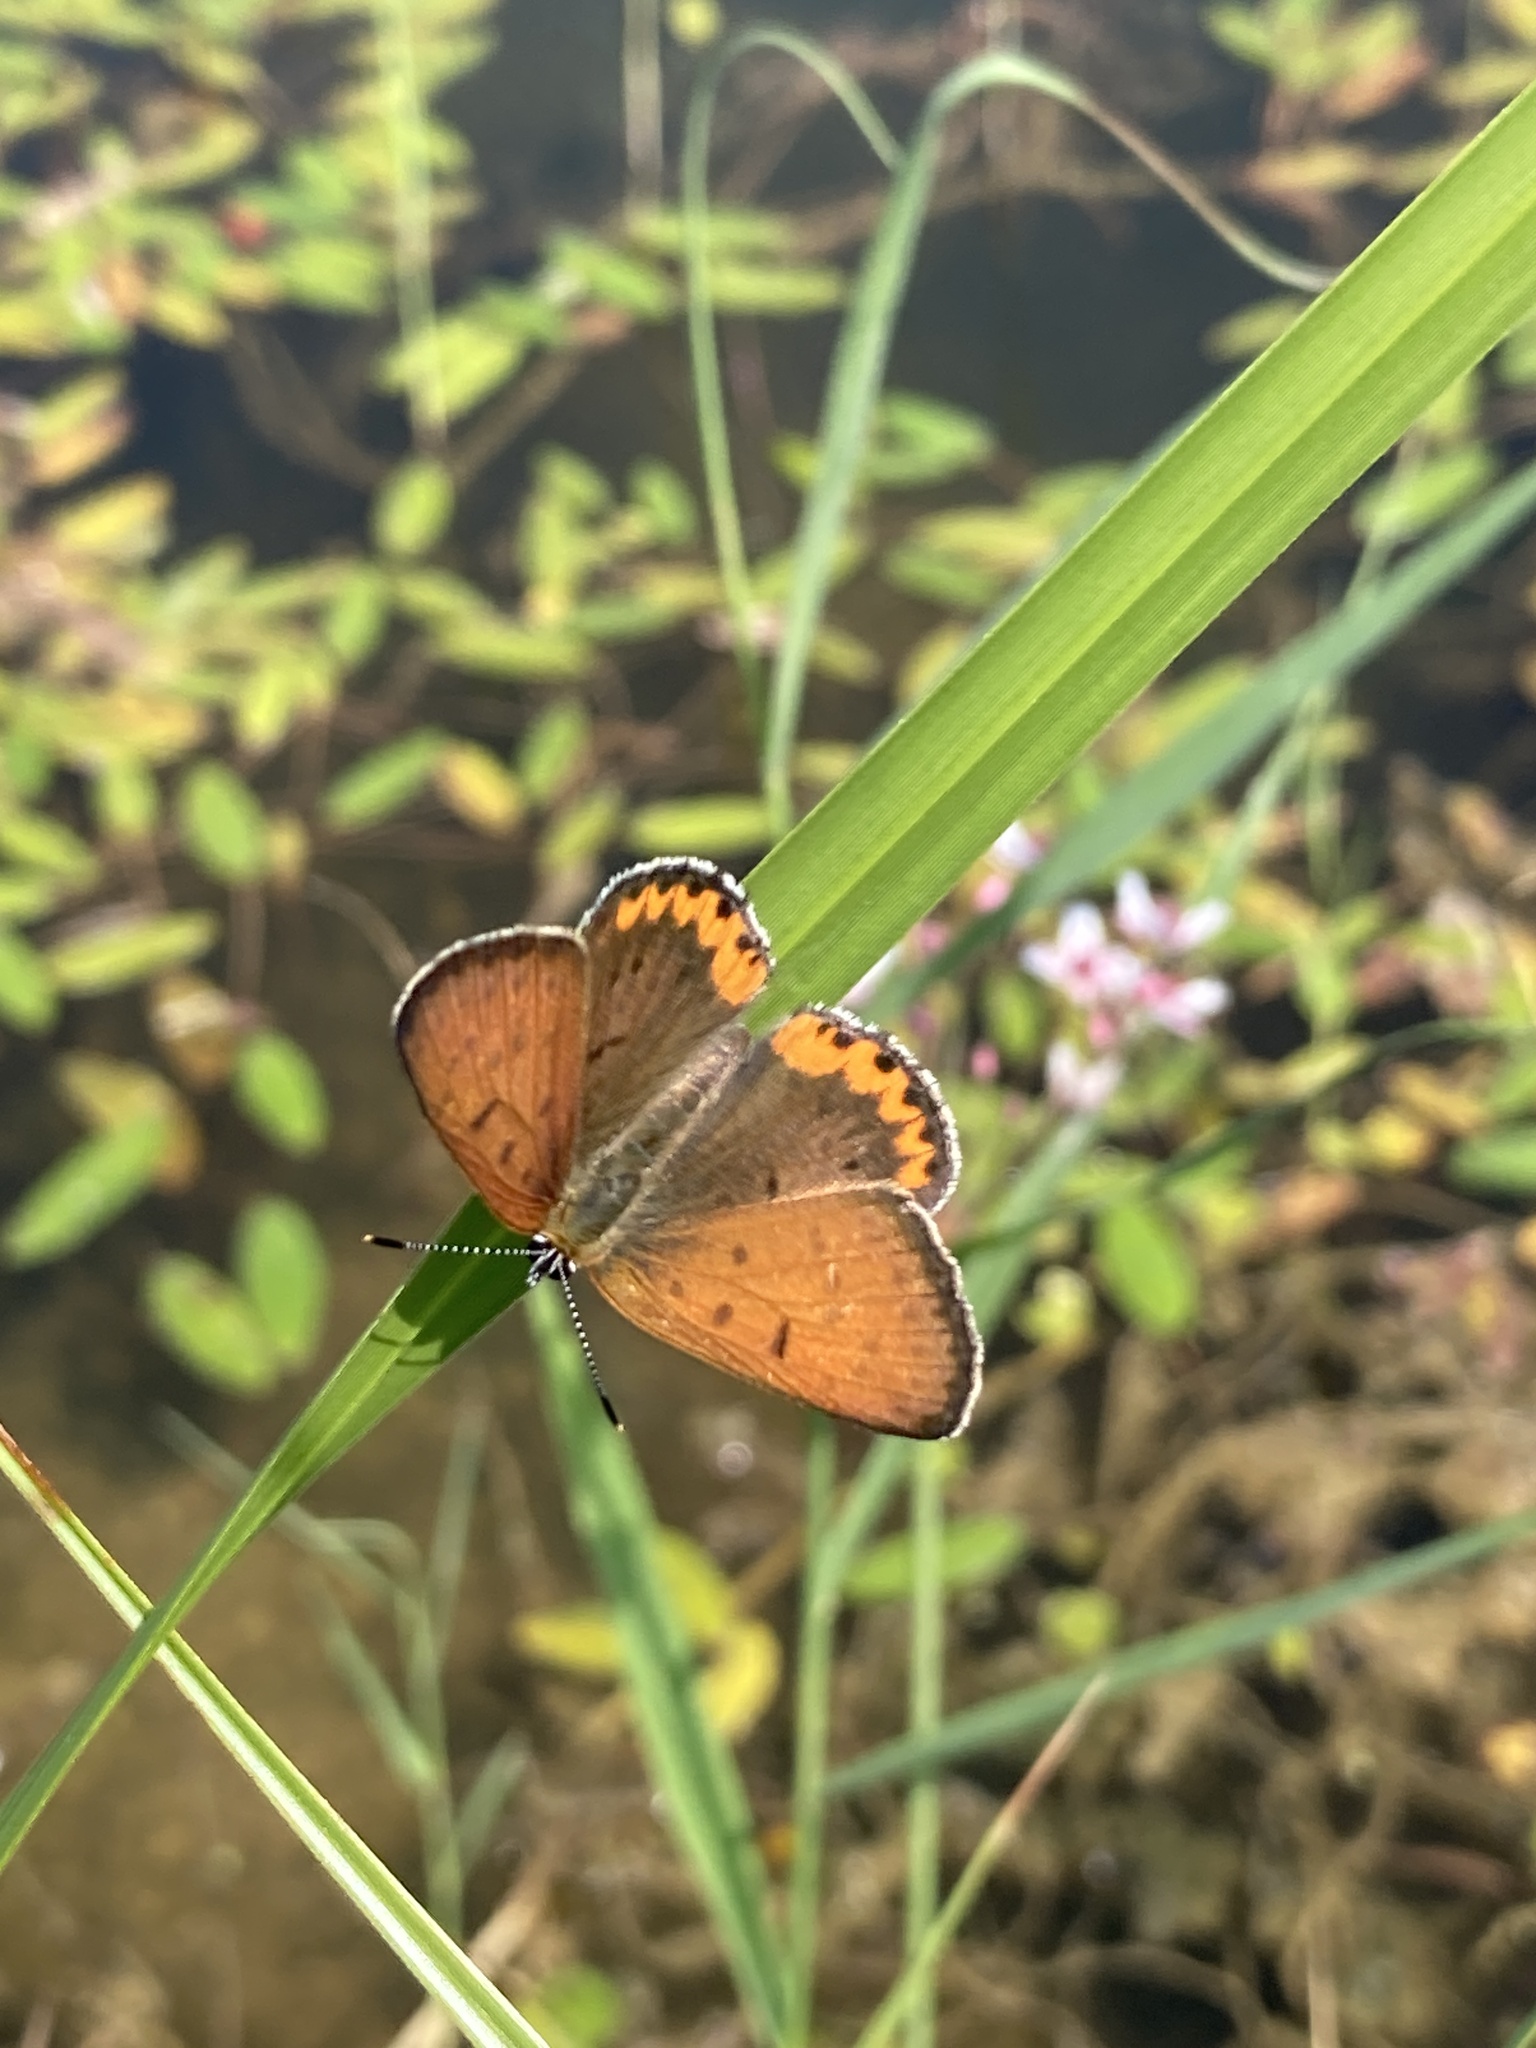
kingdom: Animalia
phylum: Arthropoda
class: Insecta
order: Lepidoptera
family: Lycaenidae
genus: Tharsalea
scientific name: Tharsalea hyllus
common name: Bronze copper
